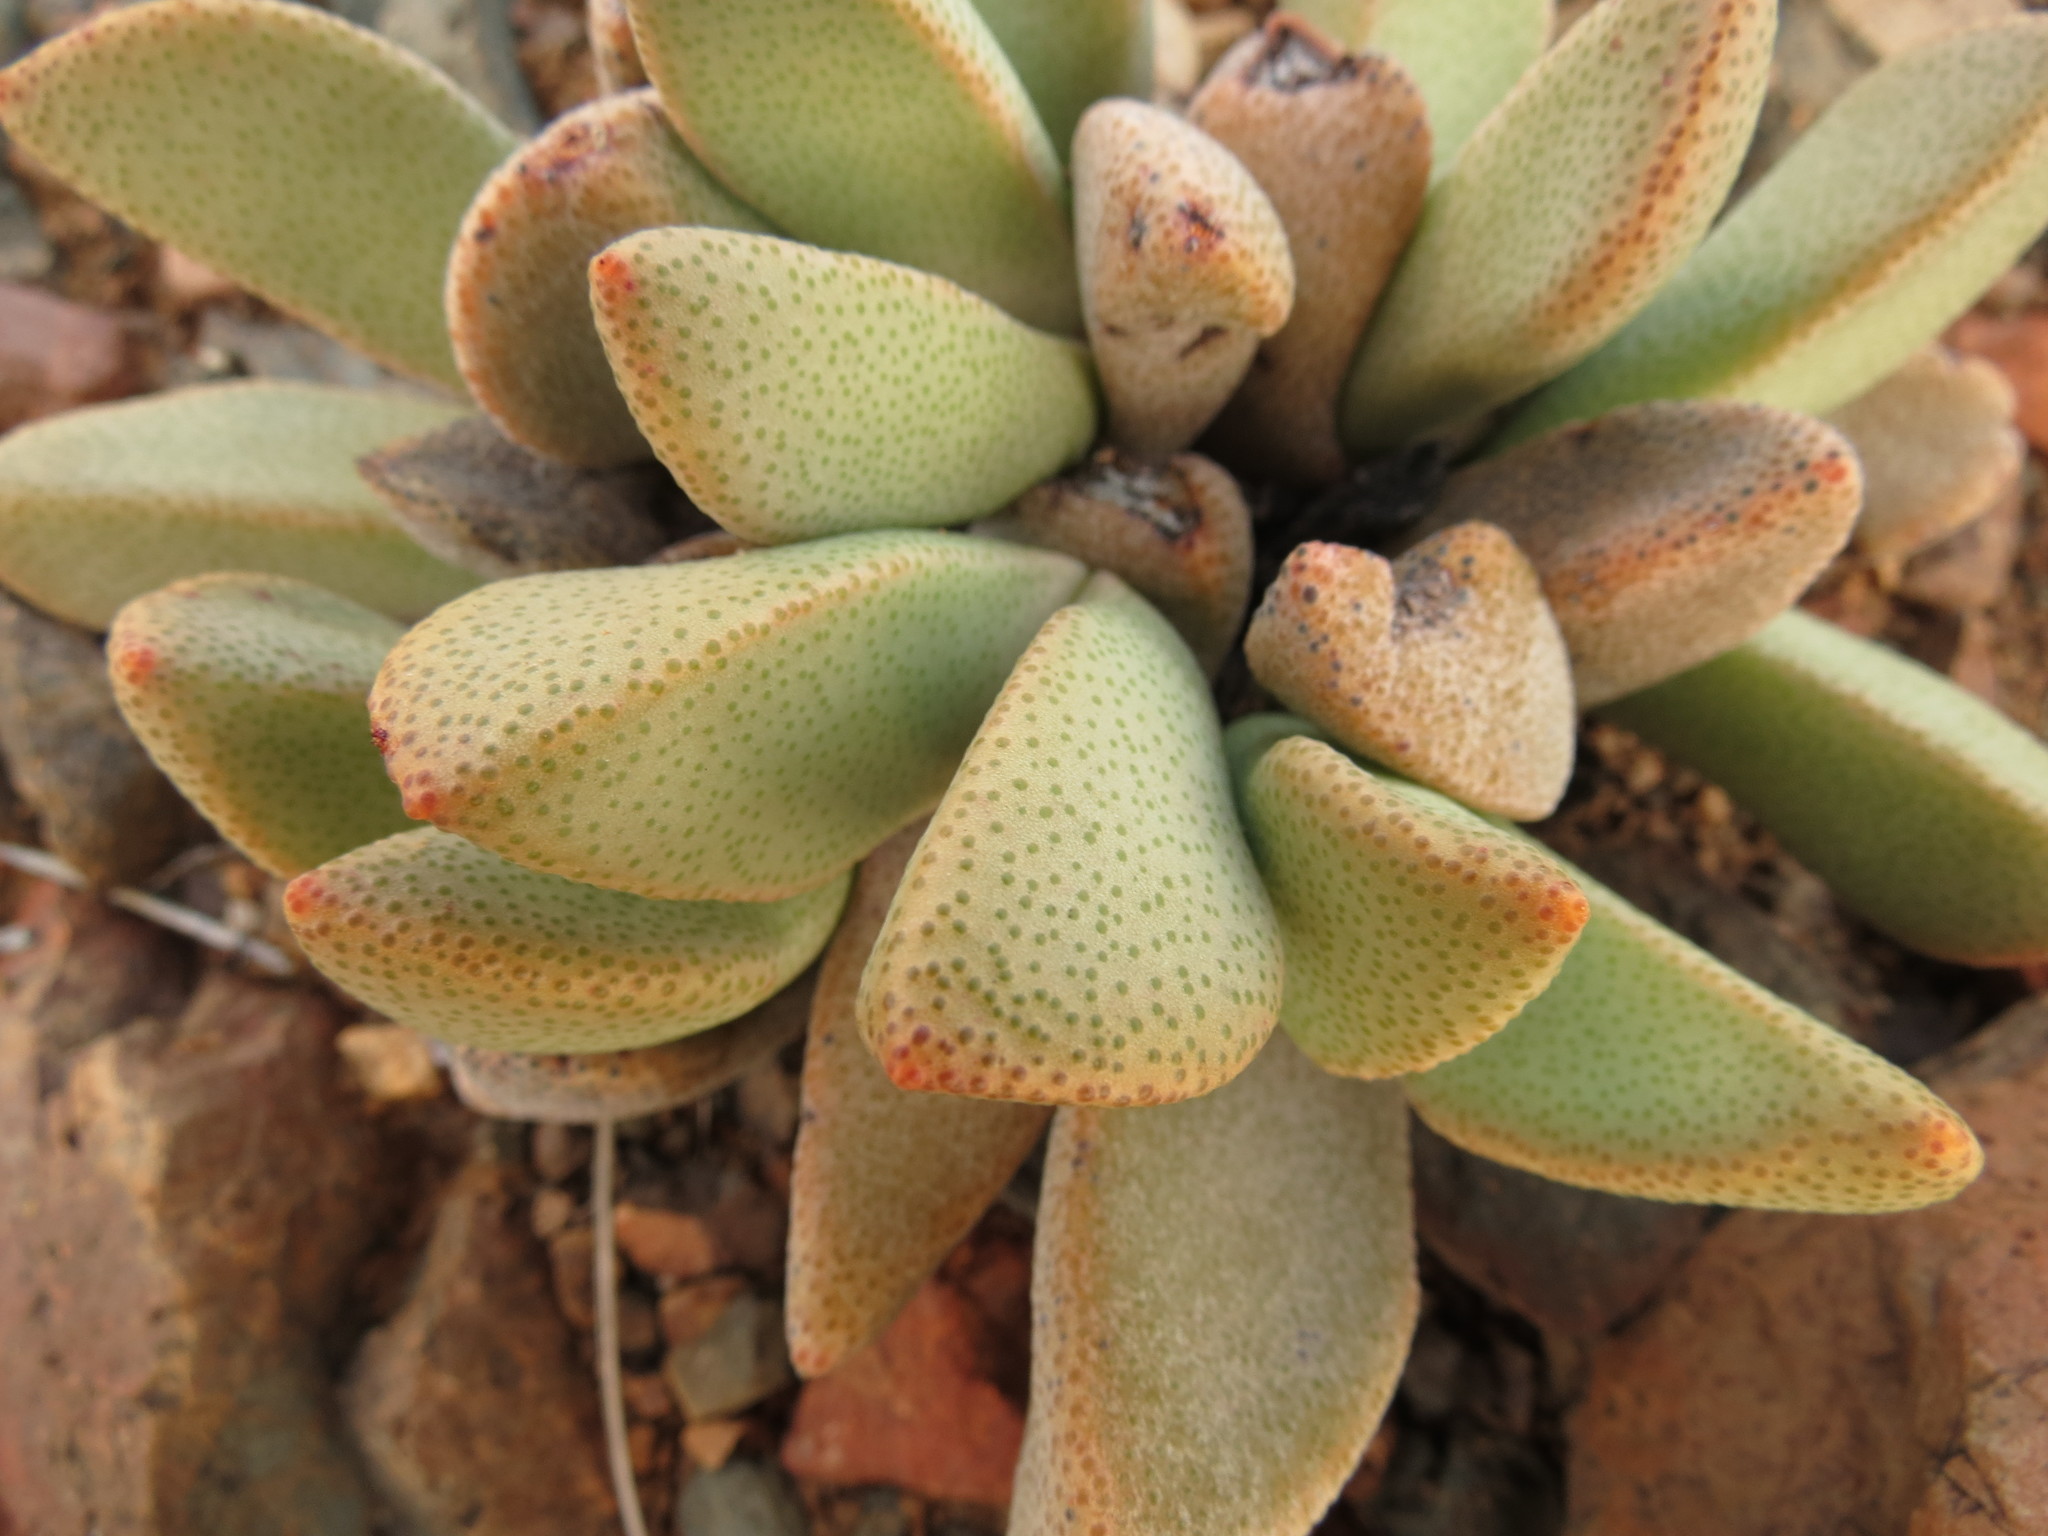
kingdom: Plantae
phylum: Tracheophyta
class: Magnoliopsida
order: Caryophyllales
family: Aizoaceae
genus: Pleiospilos
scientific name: Pleiospilos compactus
